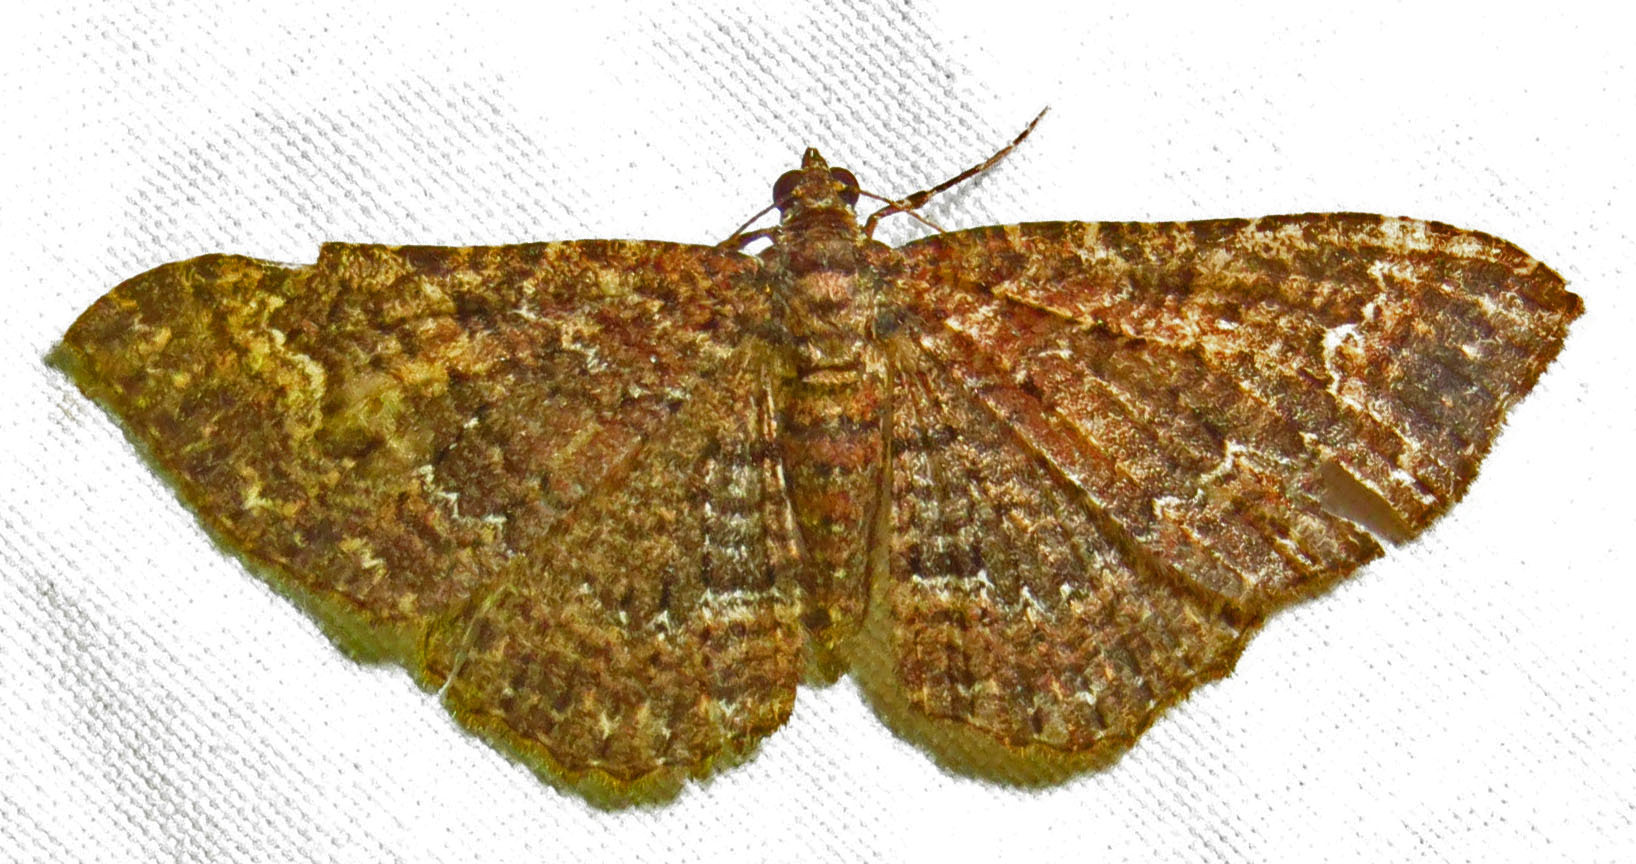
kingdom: Animalia
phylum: Arthropoda
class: Insecta
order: Lepidoptera
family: Geometridae
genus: Disclisioprocta
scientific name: Disclisioprocta stellata
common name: Somber carpet
